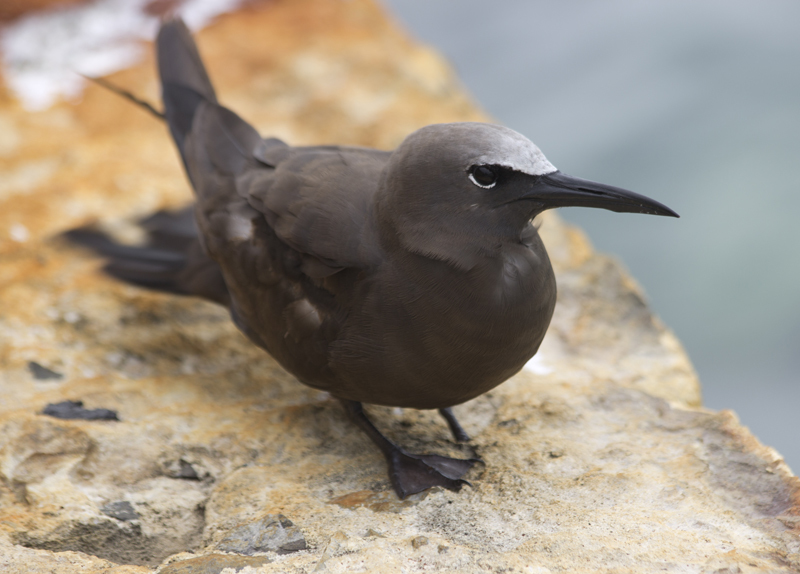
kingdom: Animalia
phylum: Chordata
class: Aves
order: Charadriiformes
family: Laridae
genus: Anous
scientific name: Anous stolidus
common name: Brown noddy
